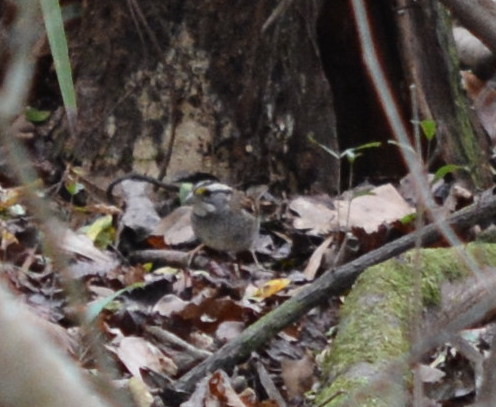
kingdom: Animalia
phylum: Chordata
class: Aves
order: Passeriformes
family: Passerellidae
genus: Zonotrichia
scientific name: Zonotrichia albicollis
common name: White-throated sparrow
